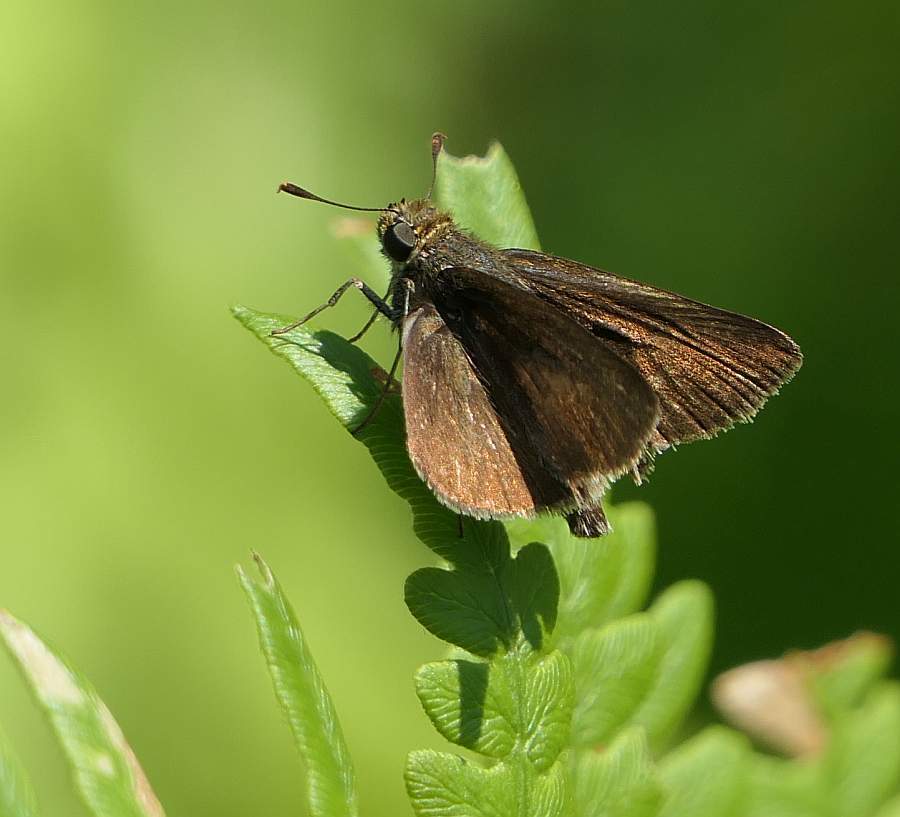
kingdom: Animalia
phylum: Arthropoda
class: Insecta
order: Lepidoptera
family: Hesperiidae
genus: Euphyes
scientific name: Euphyes vestris
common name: Dun skipper
